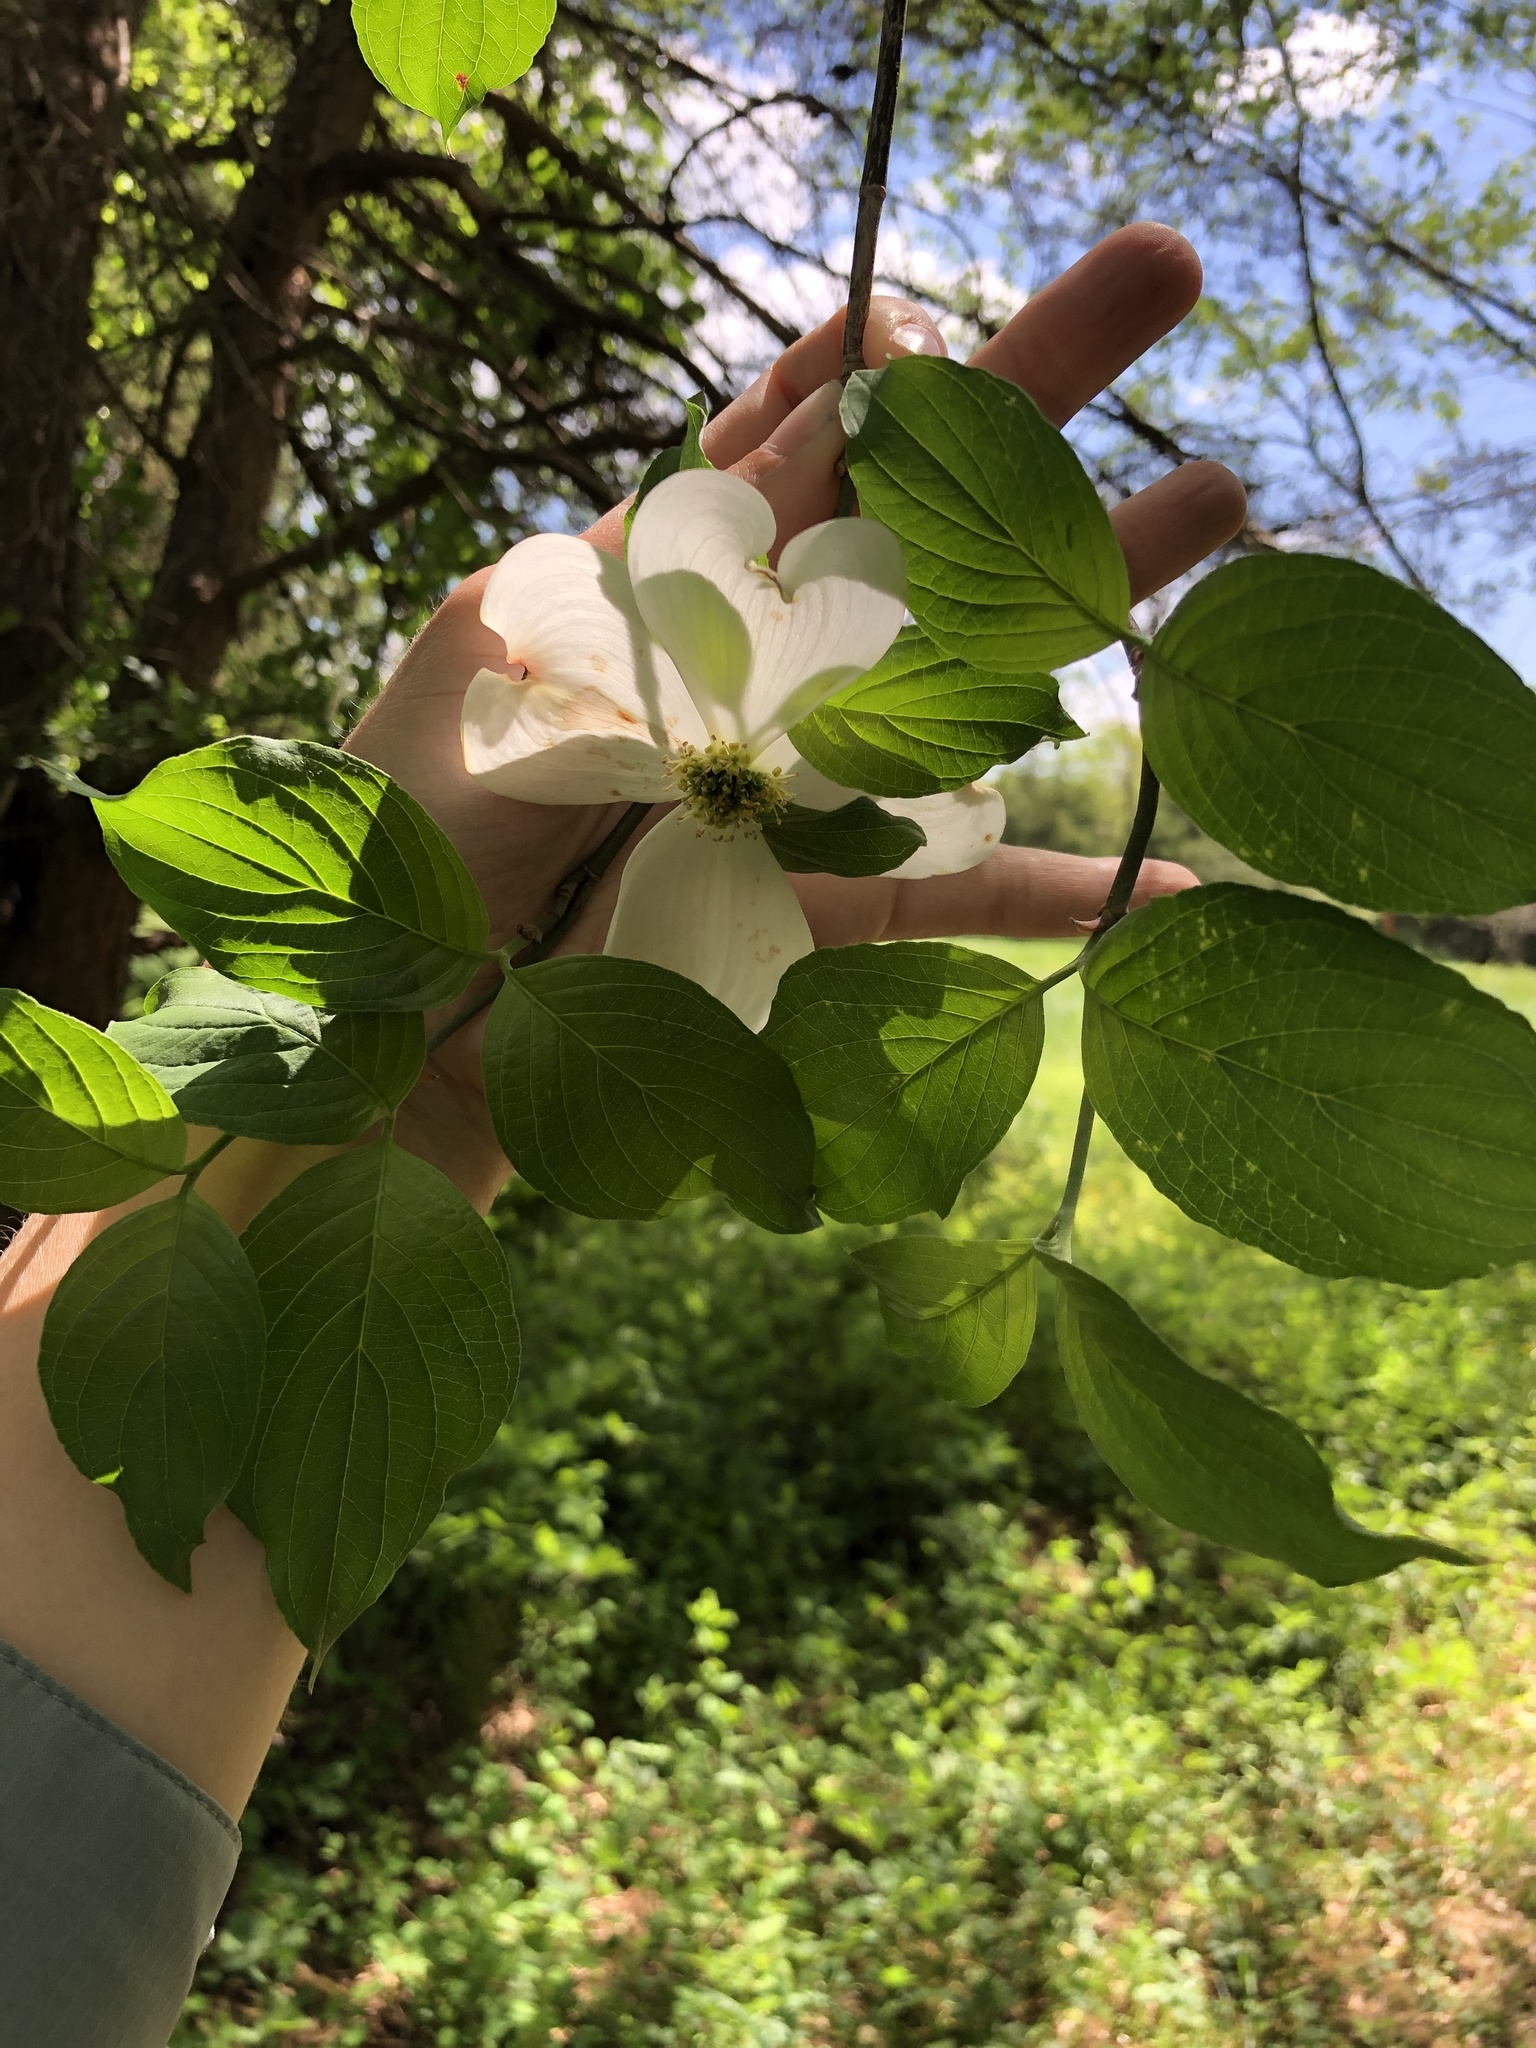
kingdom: Plantae
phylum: Tracheophyta
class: Magnoliopsida
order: Cornales
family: Cornaceae
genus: Cornus
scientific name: Cornus florida
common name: Flowering dogwood
